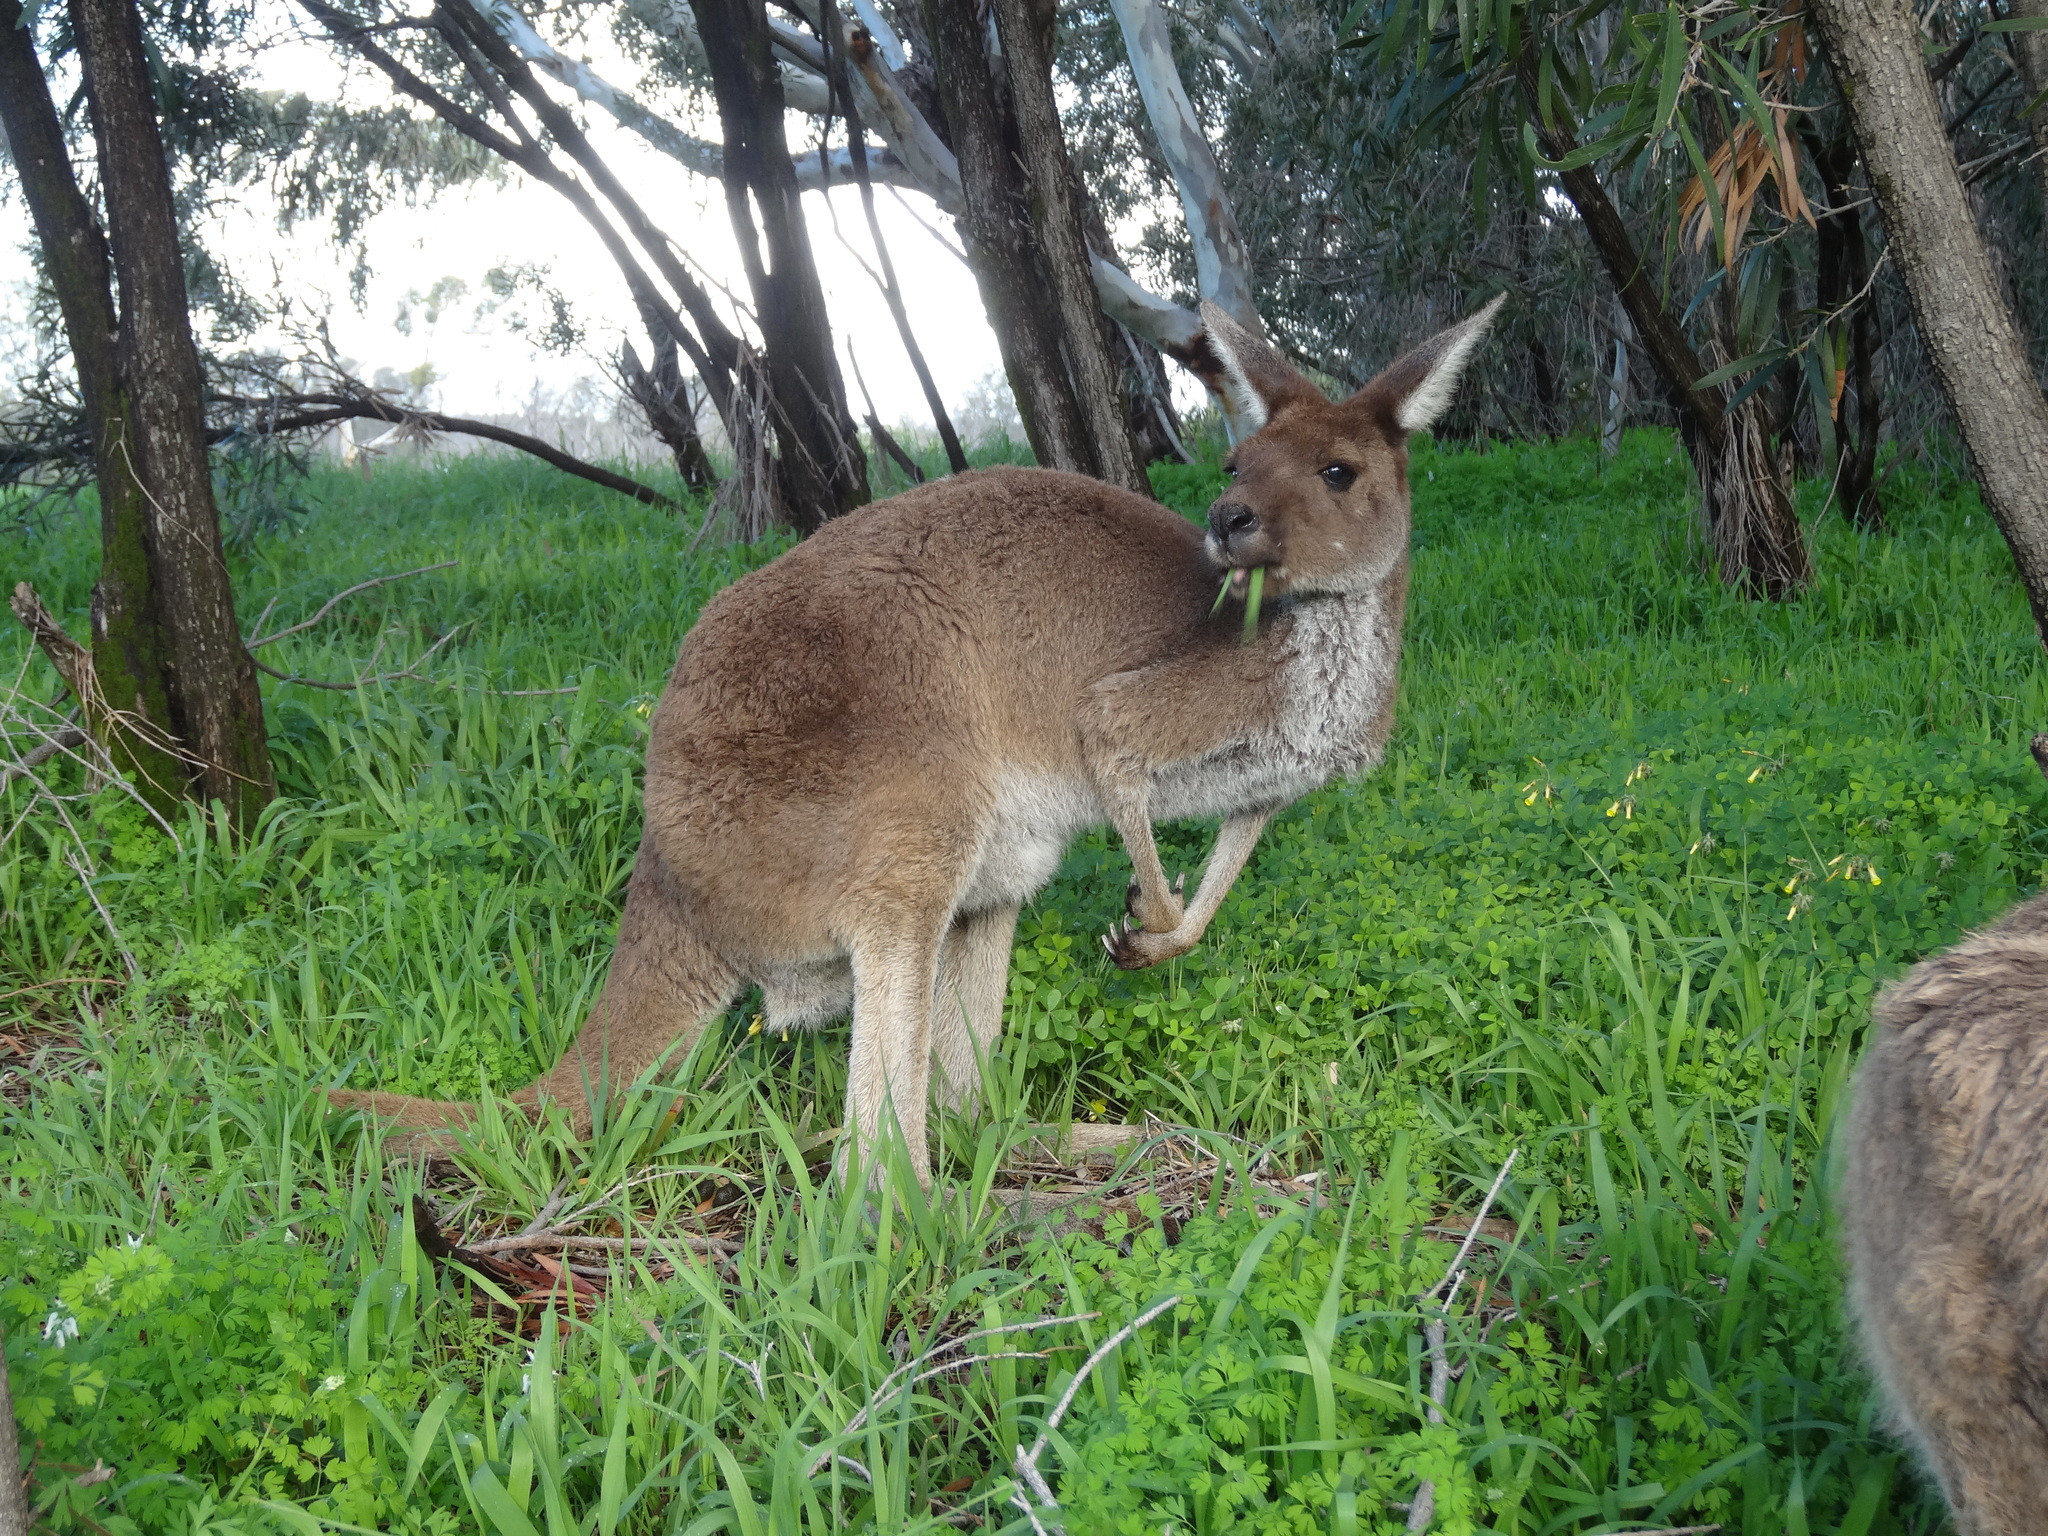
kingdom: Animalia
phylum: Chordata
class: Mammalia
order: Diprotodontia
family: Macropodidae
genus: Macropus
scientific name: Macropus fuliginosus
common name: Western grey kangaroo
